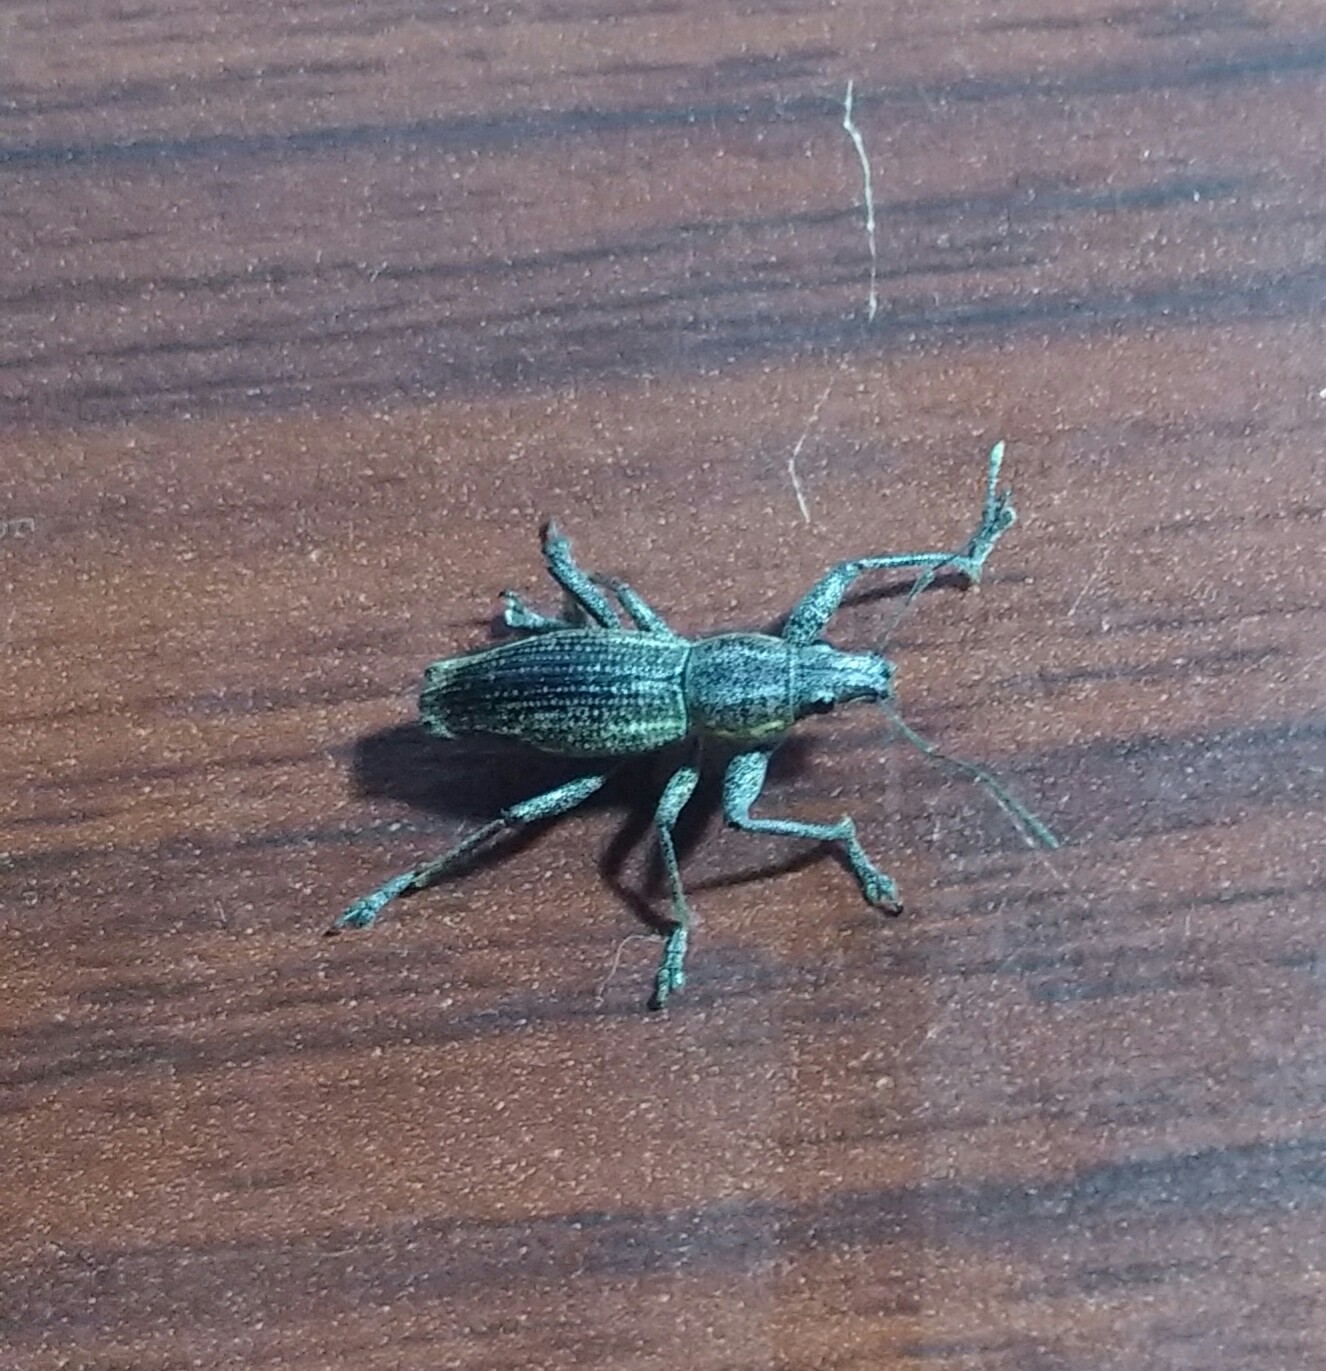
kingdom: Animalia
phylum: Arthropoda
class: Insecta
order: Coleoptera
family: Curculionidae
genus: Naupactus
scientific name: Naupactus xanthographus
